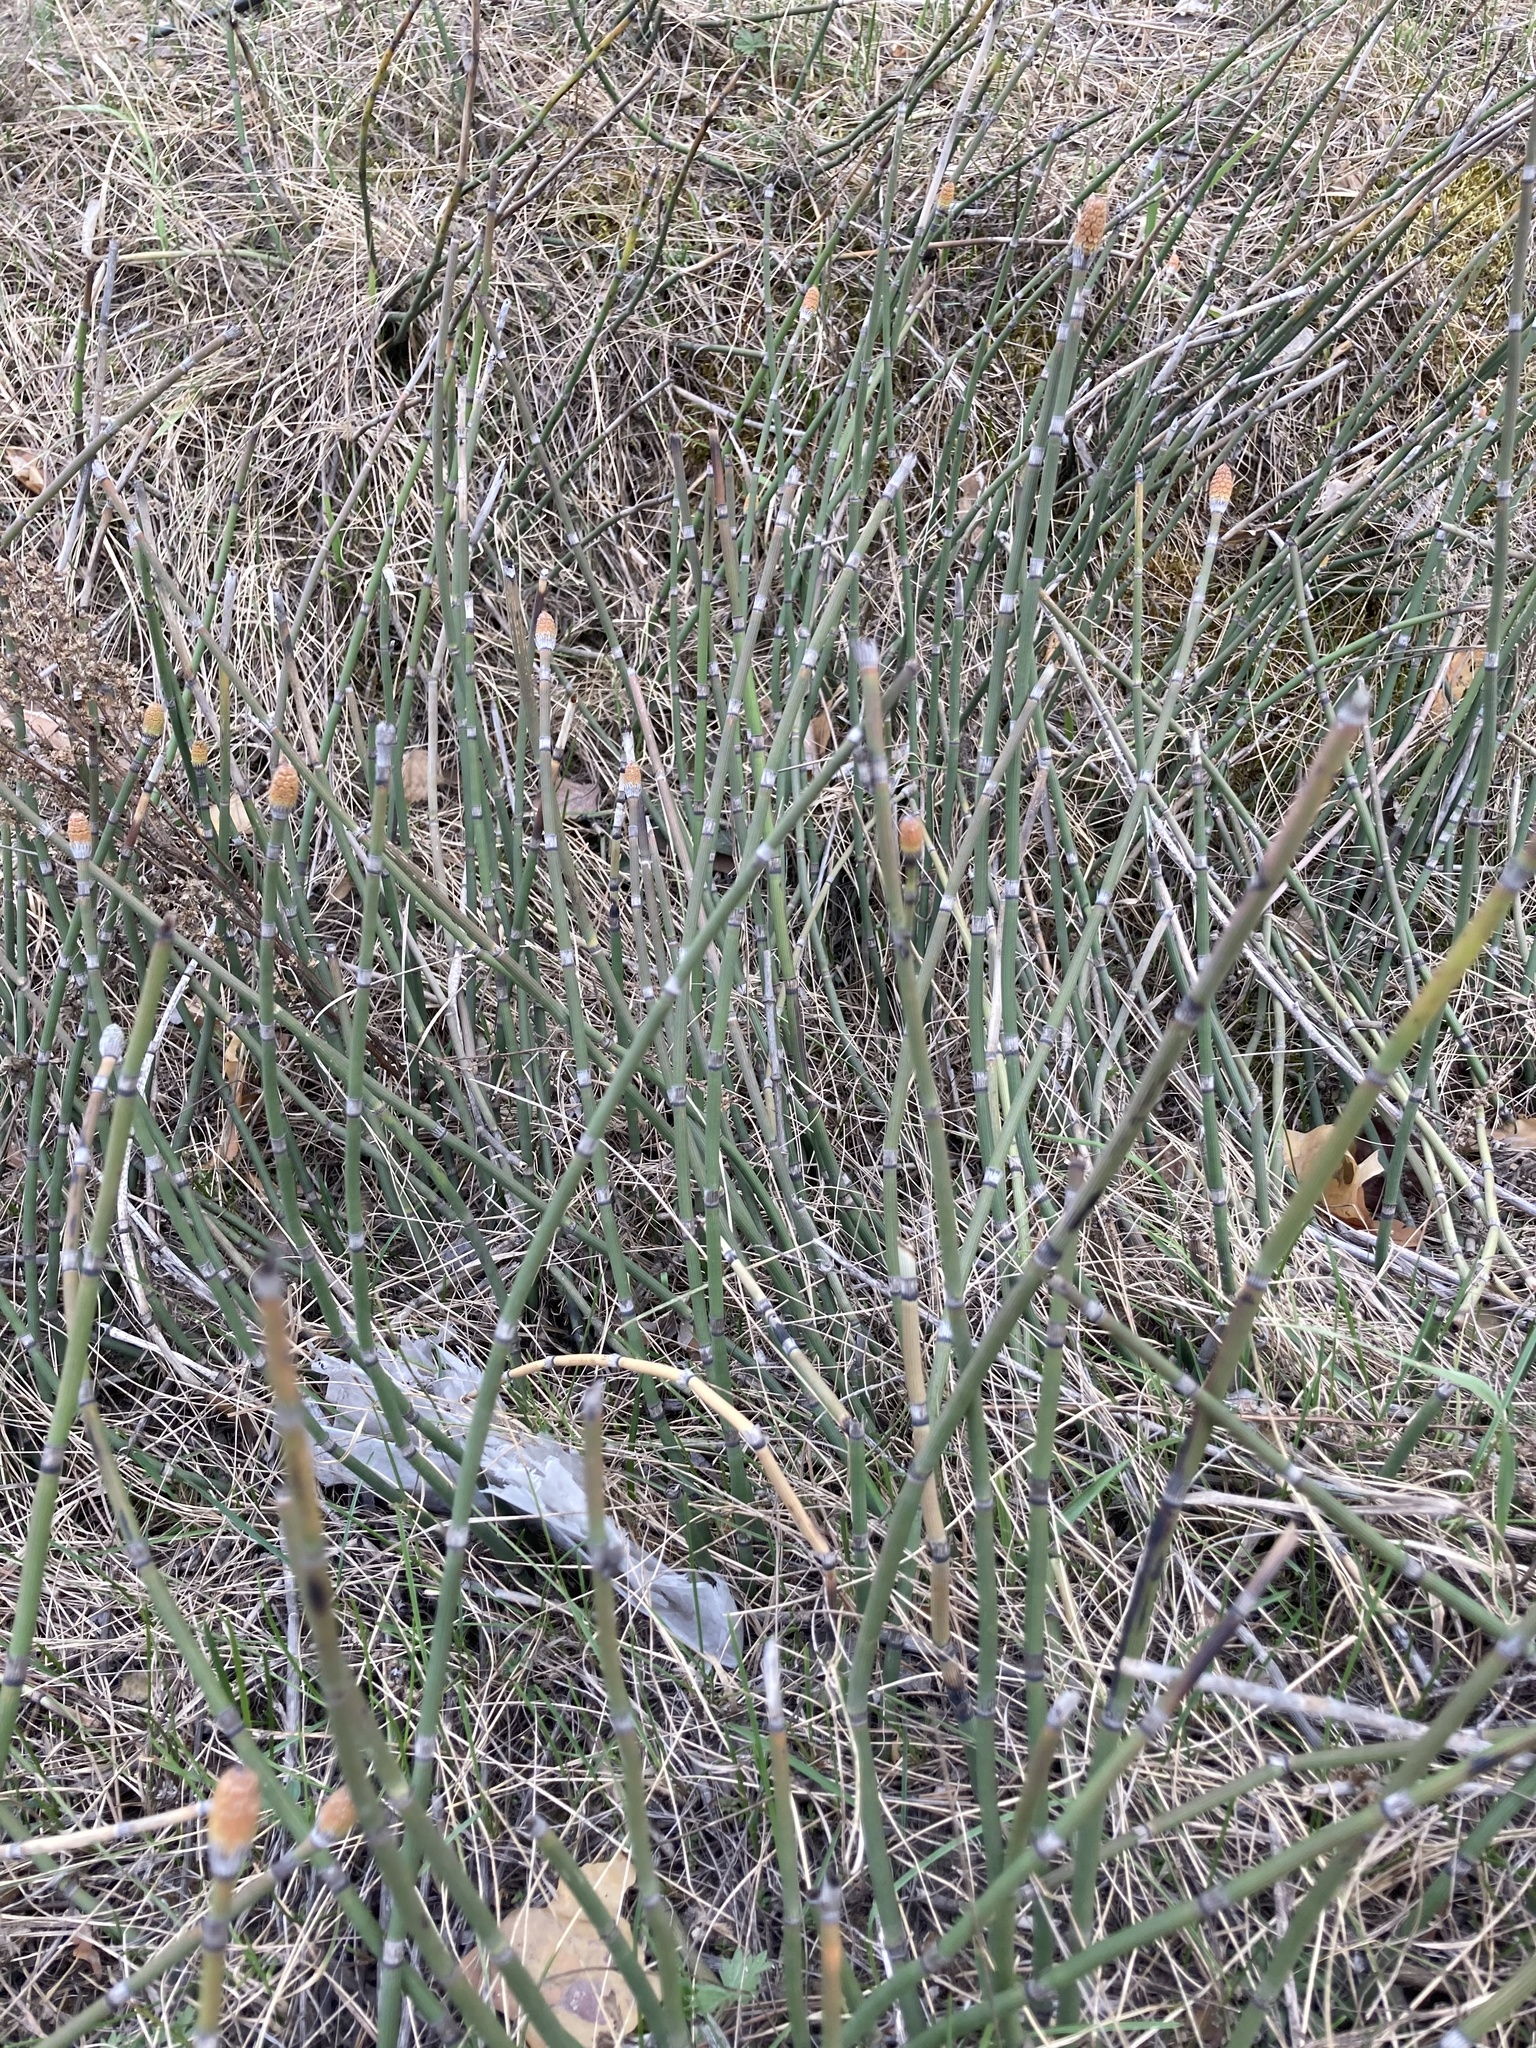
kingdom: Plantae
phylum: Tracheophyta
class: Polypodiopsida
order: Equisetales
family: Equisetaceae
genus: Equisetum
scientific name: Equisetum hyemale
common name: Rough horsetail
